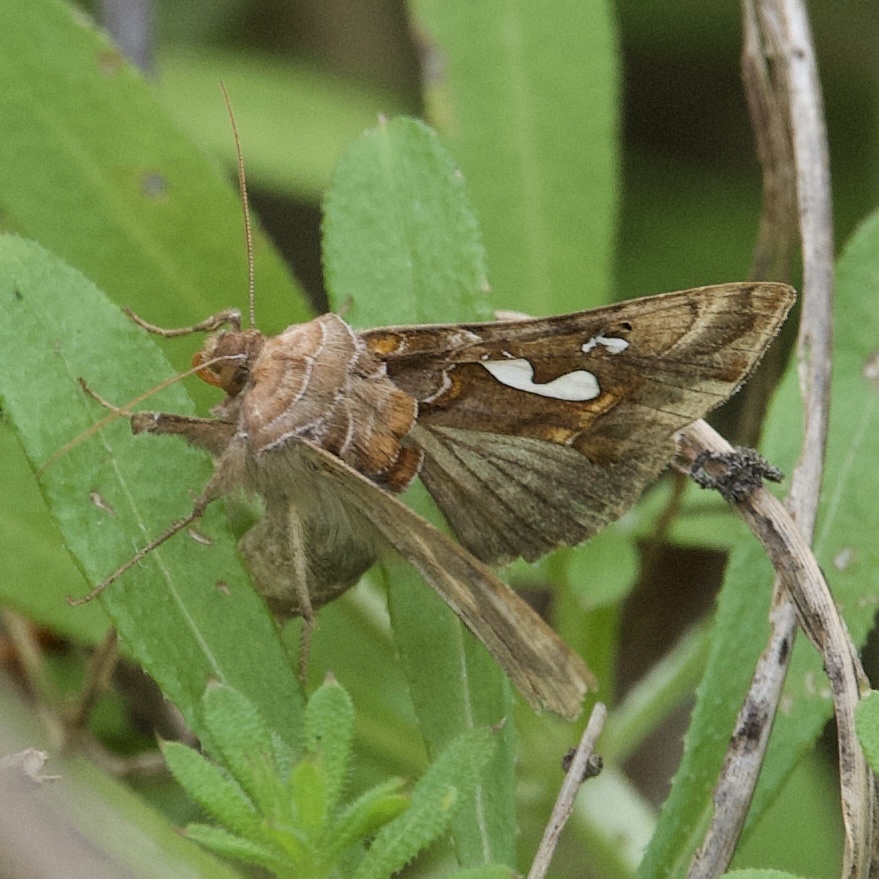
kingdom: Animalia
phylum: Arthropoda
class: Insecta
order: Lepidoptera
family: Noctuidae
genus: Megalographa
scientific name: Megalographa biloba
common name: Cutworm
